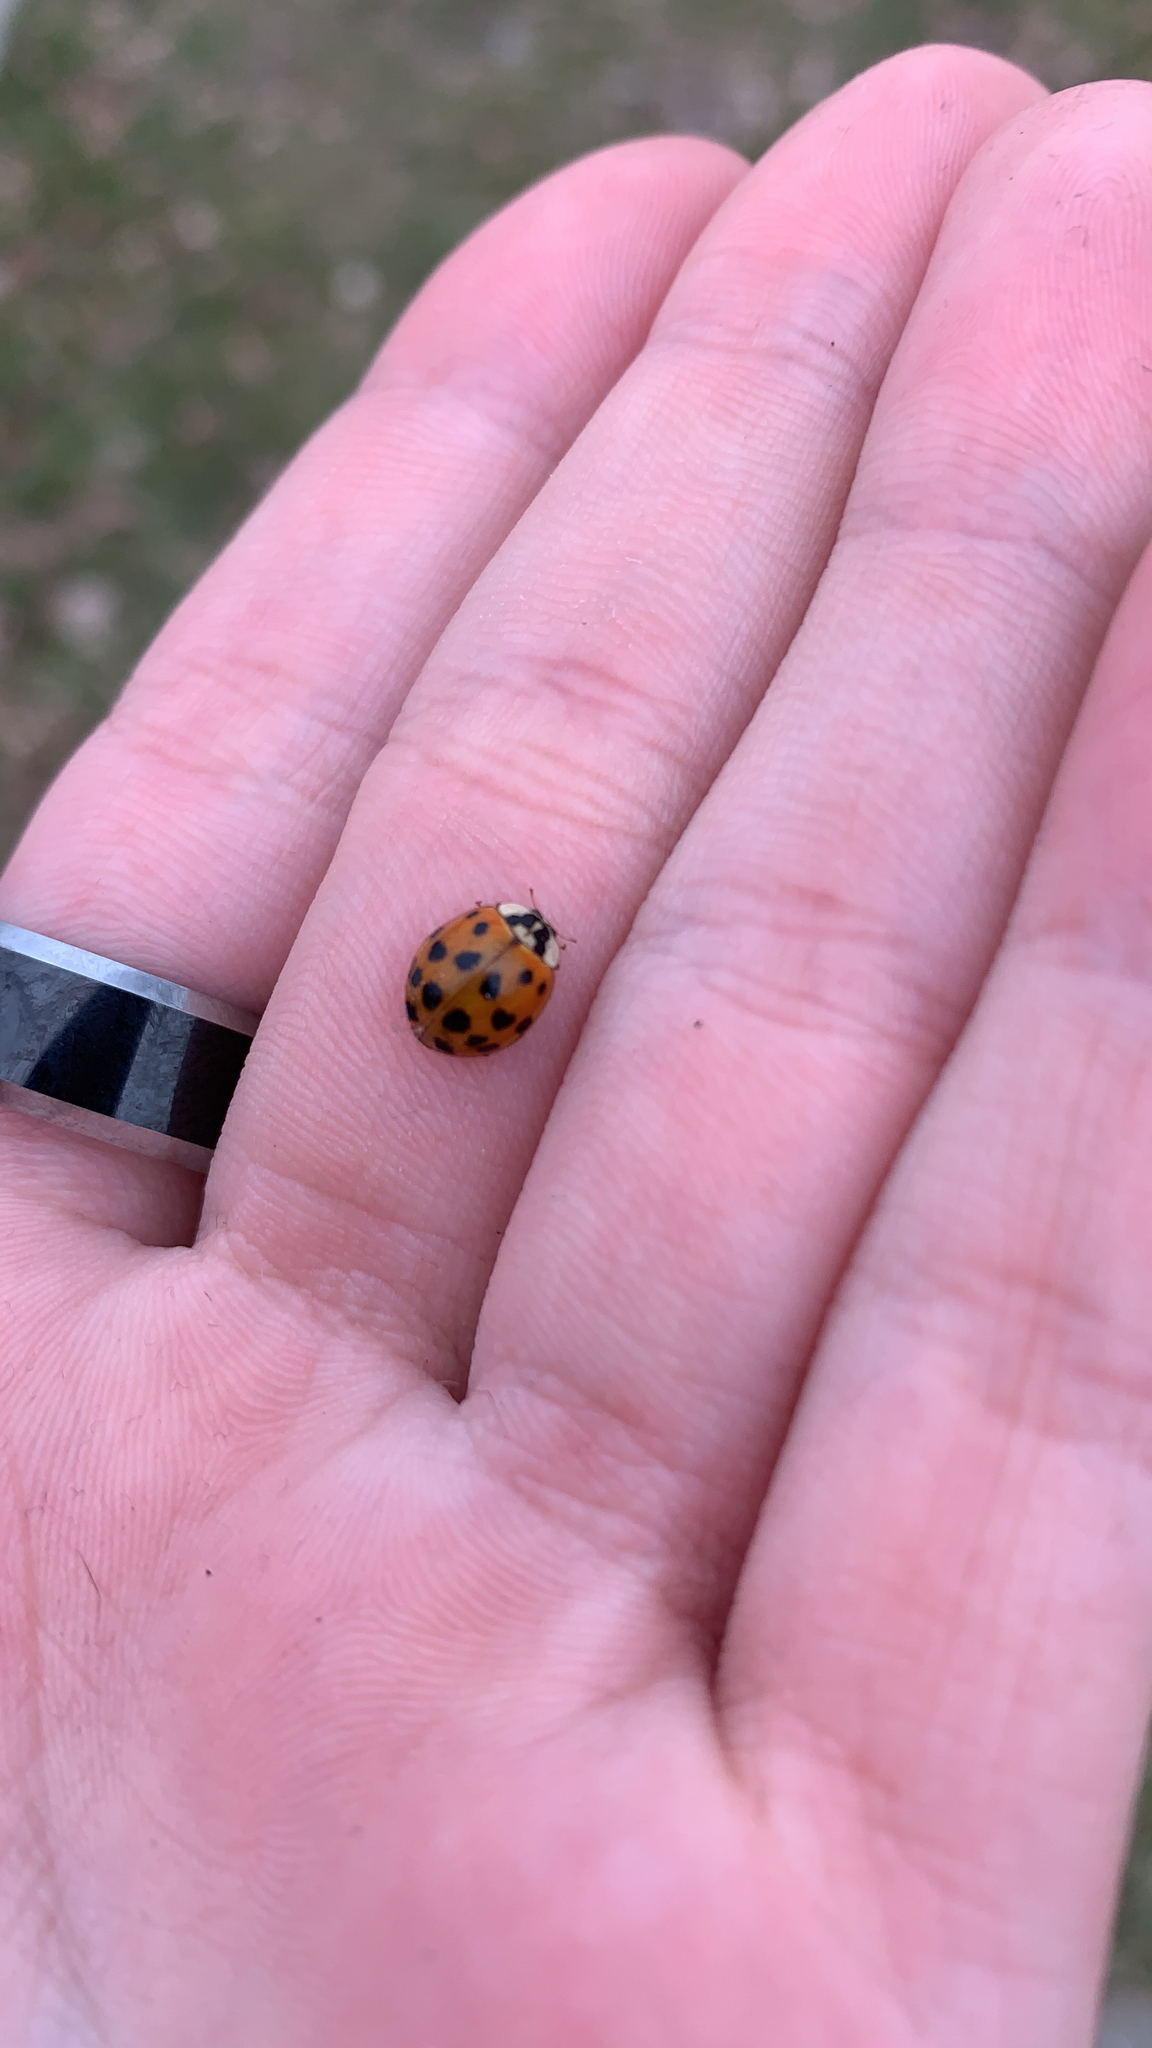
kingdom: Animalia
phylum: Arthropoda
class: Insecta
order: Coleoptera
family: Coccinellidae
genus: Harmonia
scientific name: Harmonia axyridis
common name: Harlequin ladybird
